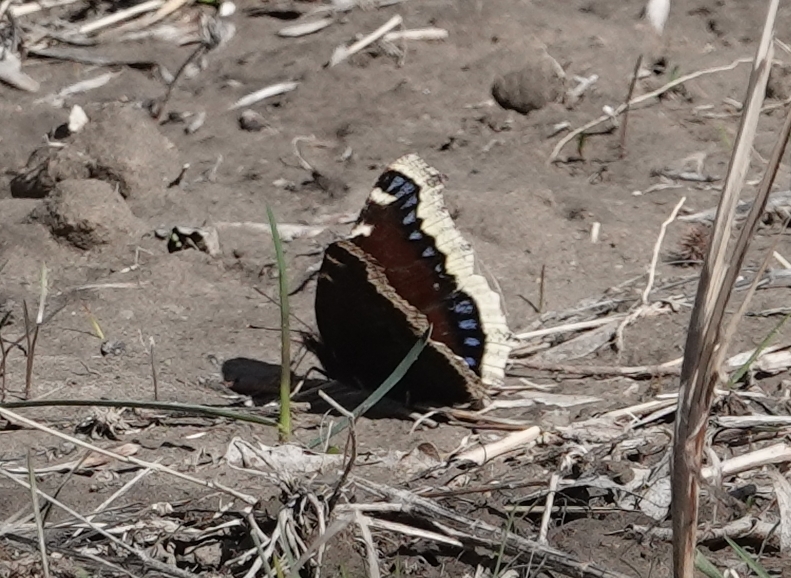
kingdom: Animalia
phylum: Arthropoda
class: Insecta
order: Lepidoptera
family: Nymphalidae
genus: Nymphalis
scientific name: Nymphalis antiopa
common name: Camberwell beauty
